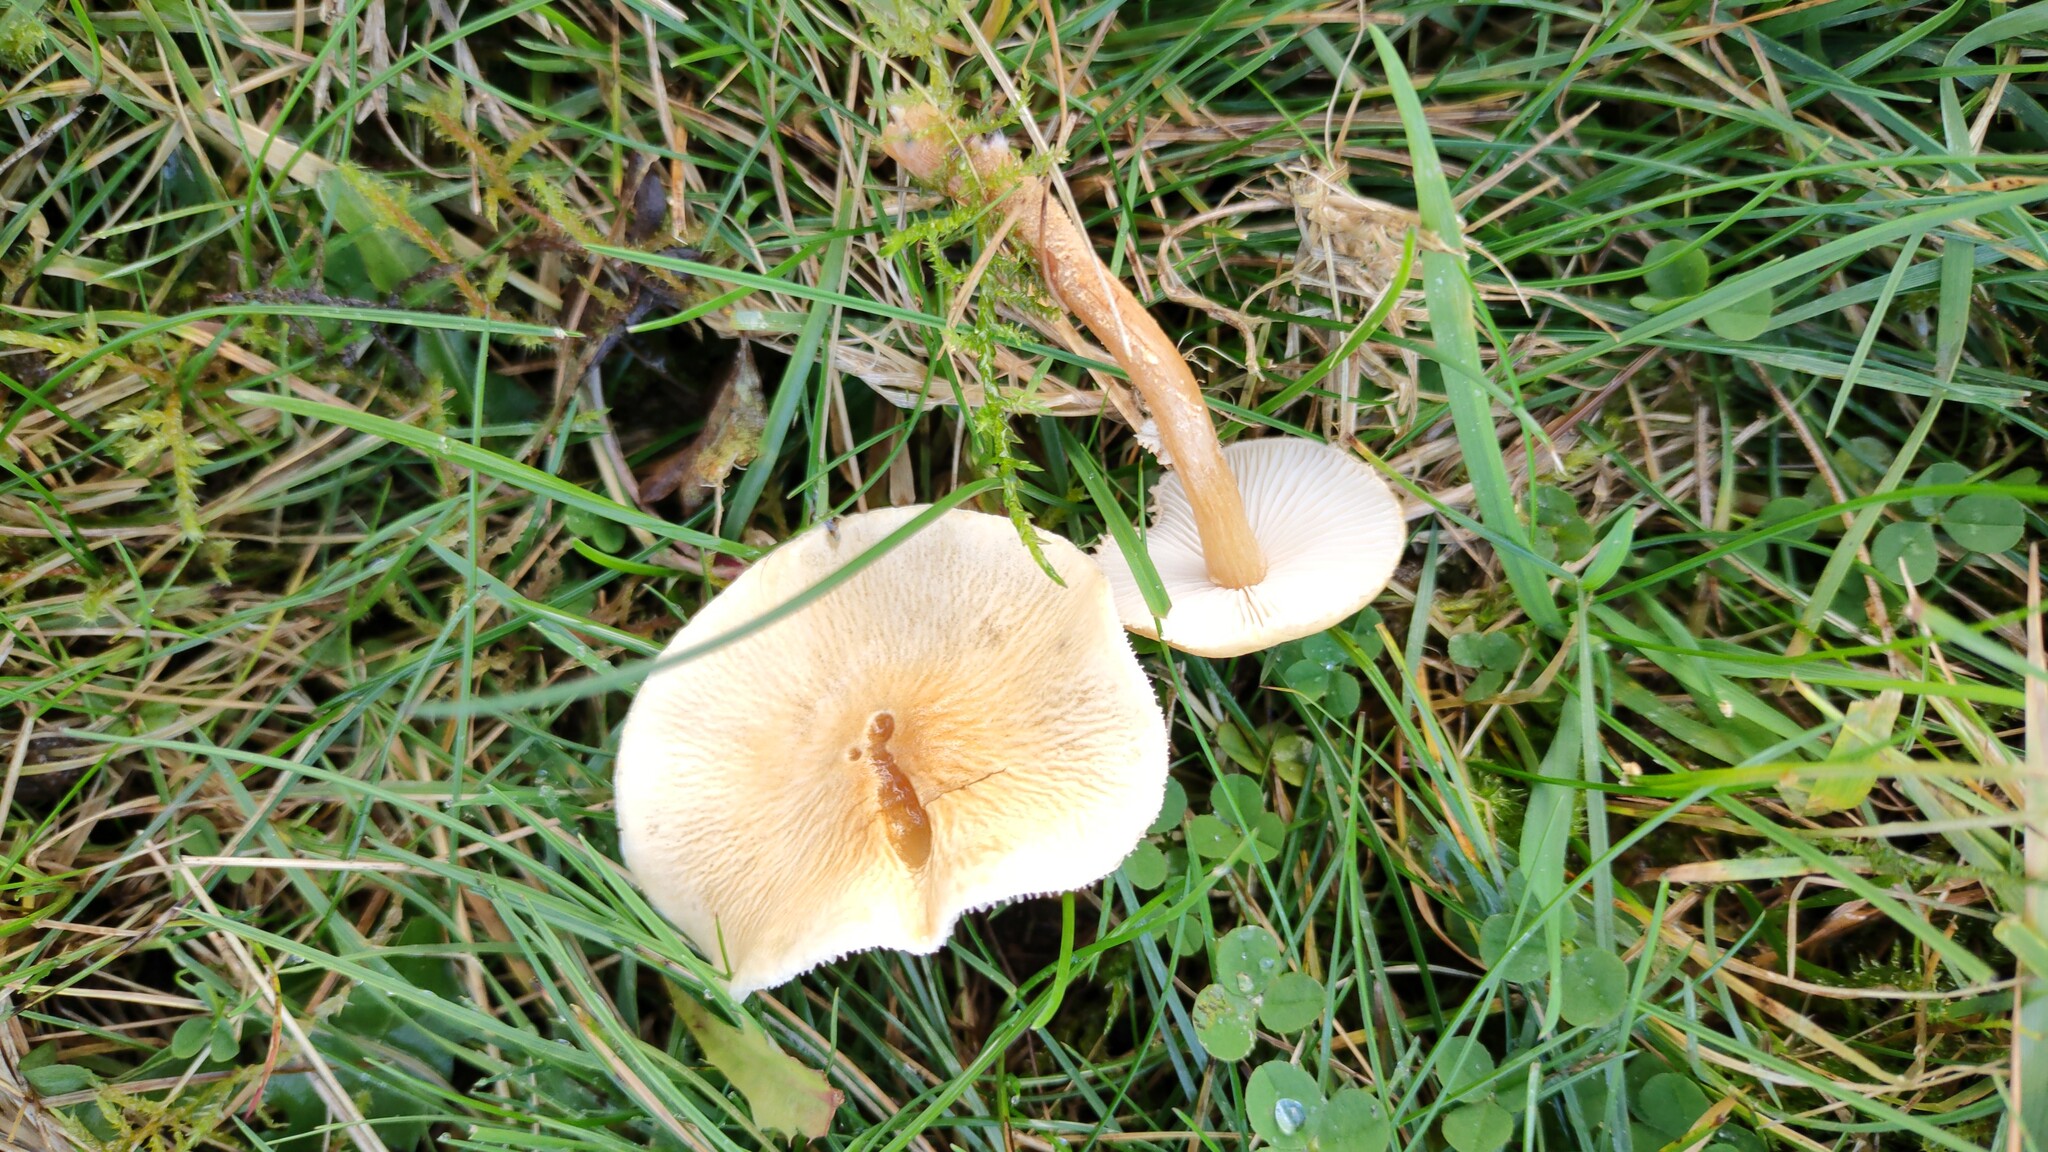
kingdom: Fungi
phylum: Basidiomycota
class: Agaricomycetes
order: Agaricales
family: Tricholomataceae
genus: Cystoderma
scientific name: Cystoderma amianthinum
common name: Earthy powdercap
